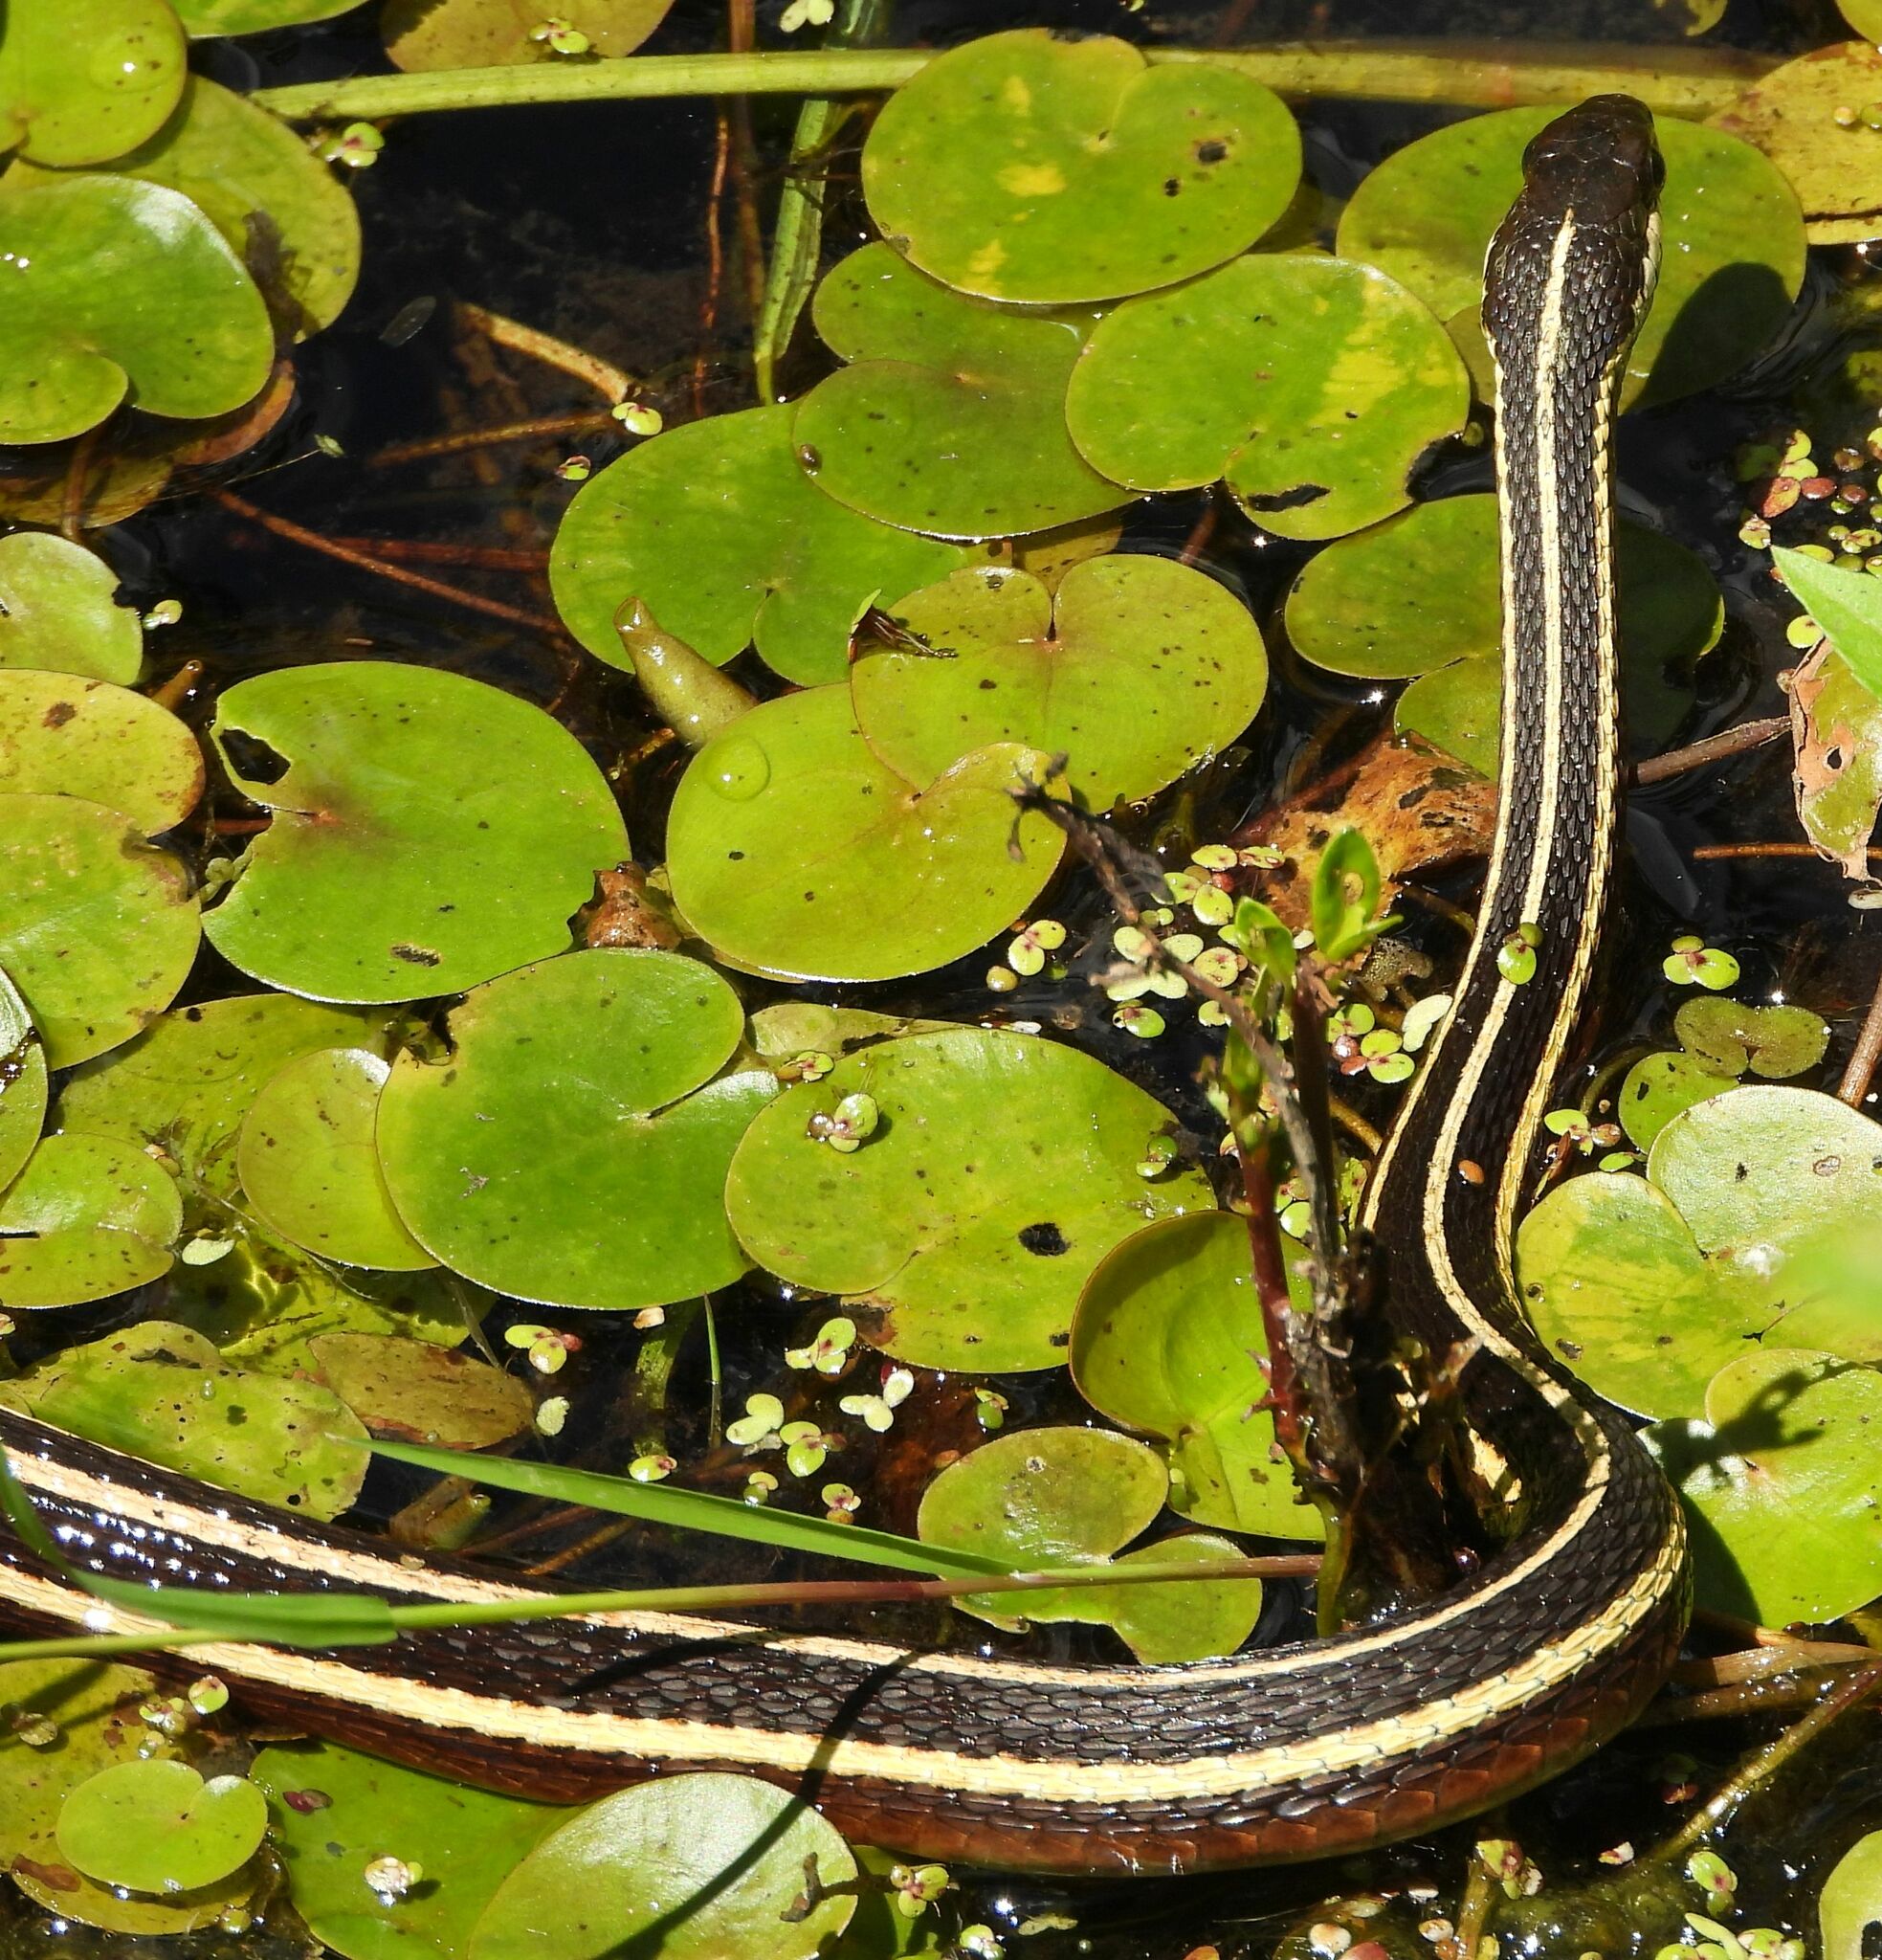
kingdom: Animalia
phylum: Chordata
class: Squamata
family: Colubridae
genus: Thamnophis
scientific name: Thamnophis saurita
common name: Eastern ribbonsnake
